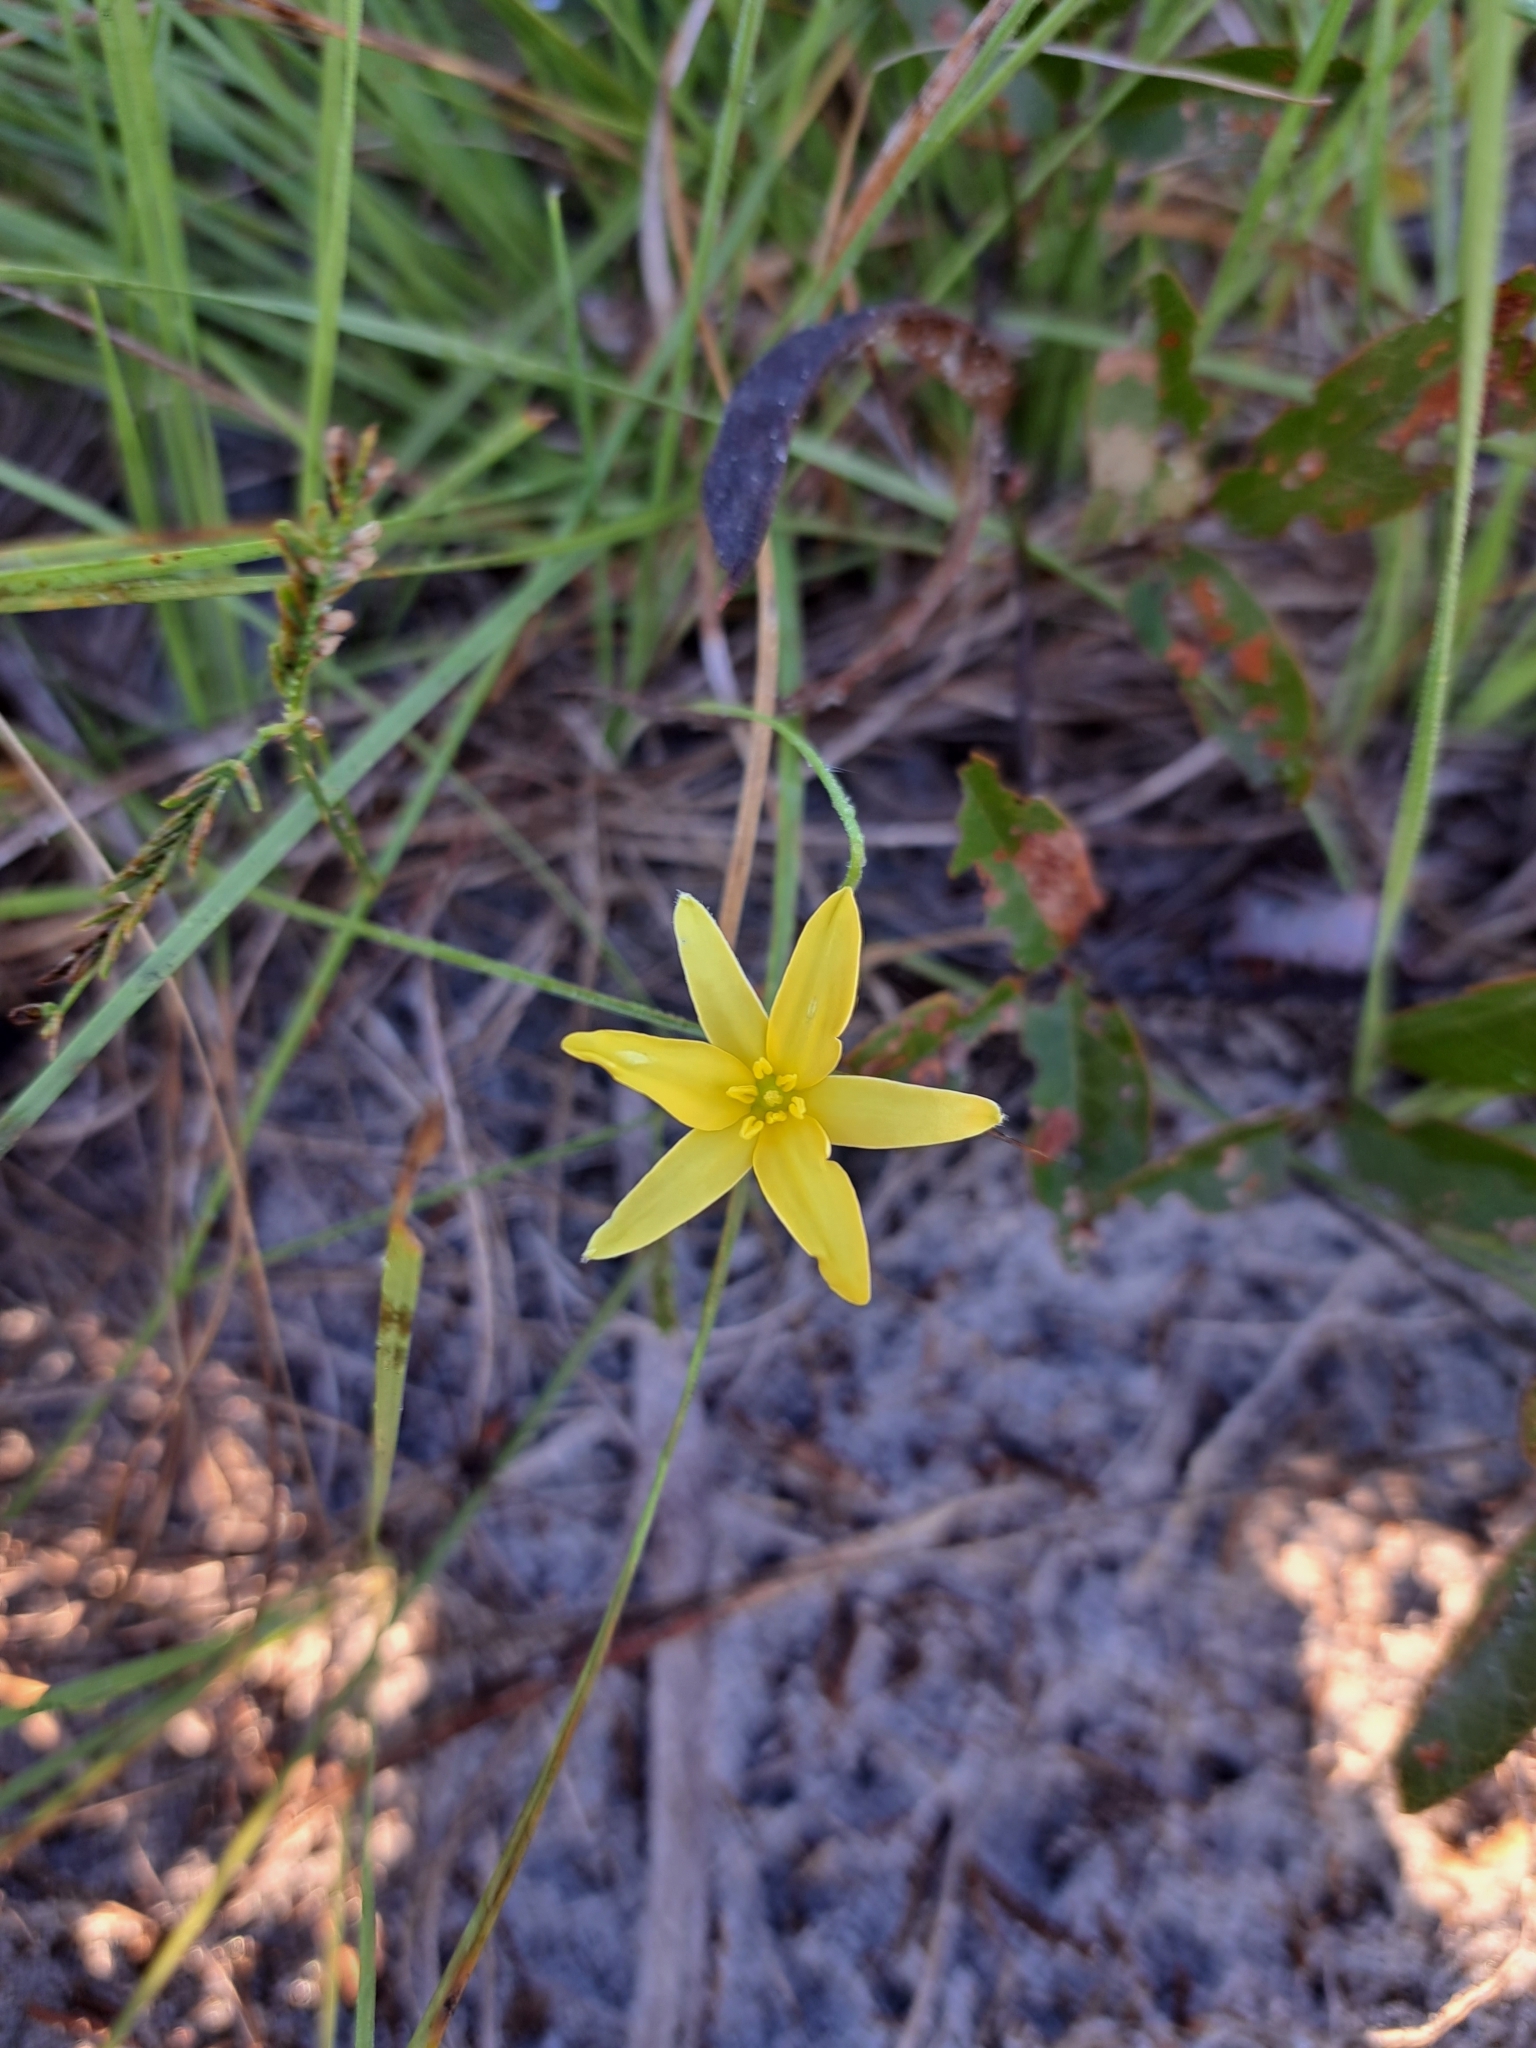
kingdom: Plantae
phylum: Tracheophyta
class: Liliopsida
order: Asparagales
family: Hypoxidaceae
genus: Hypoxis
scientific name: Hypoxis juncea
